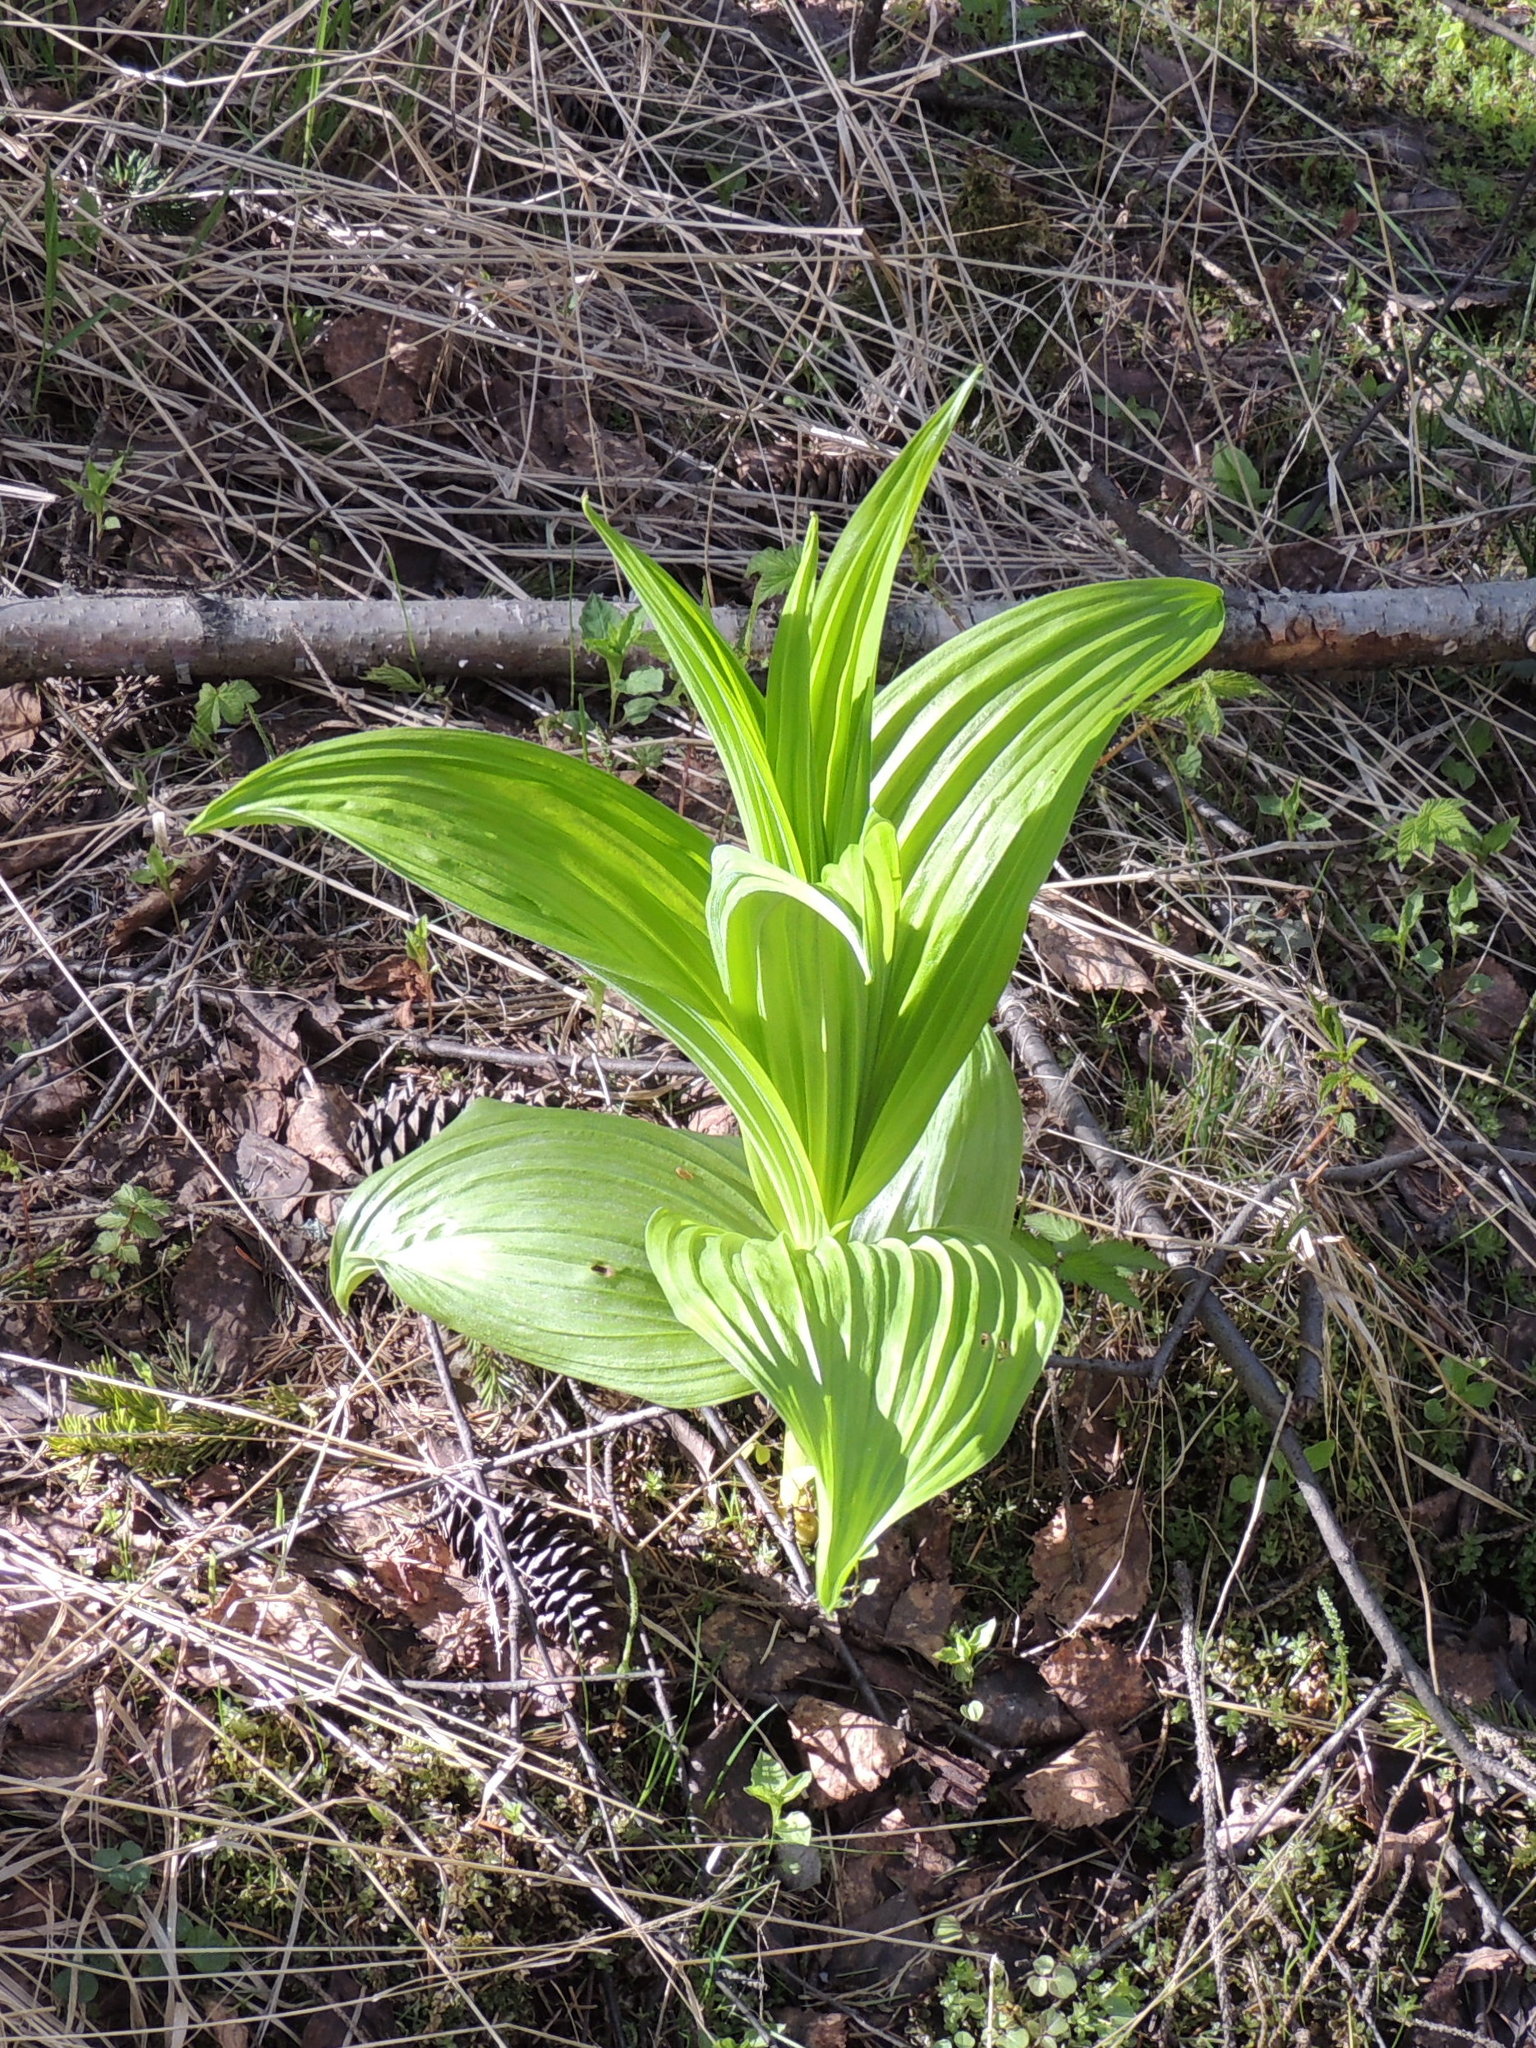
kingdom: Plantae
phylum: Tracheophyta
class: Liliopsida
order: Liliales
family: Melanthiaceae
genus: Veratrum
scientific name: Veratrum lobelianum
